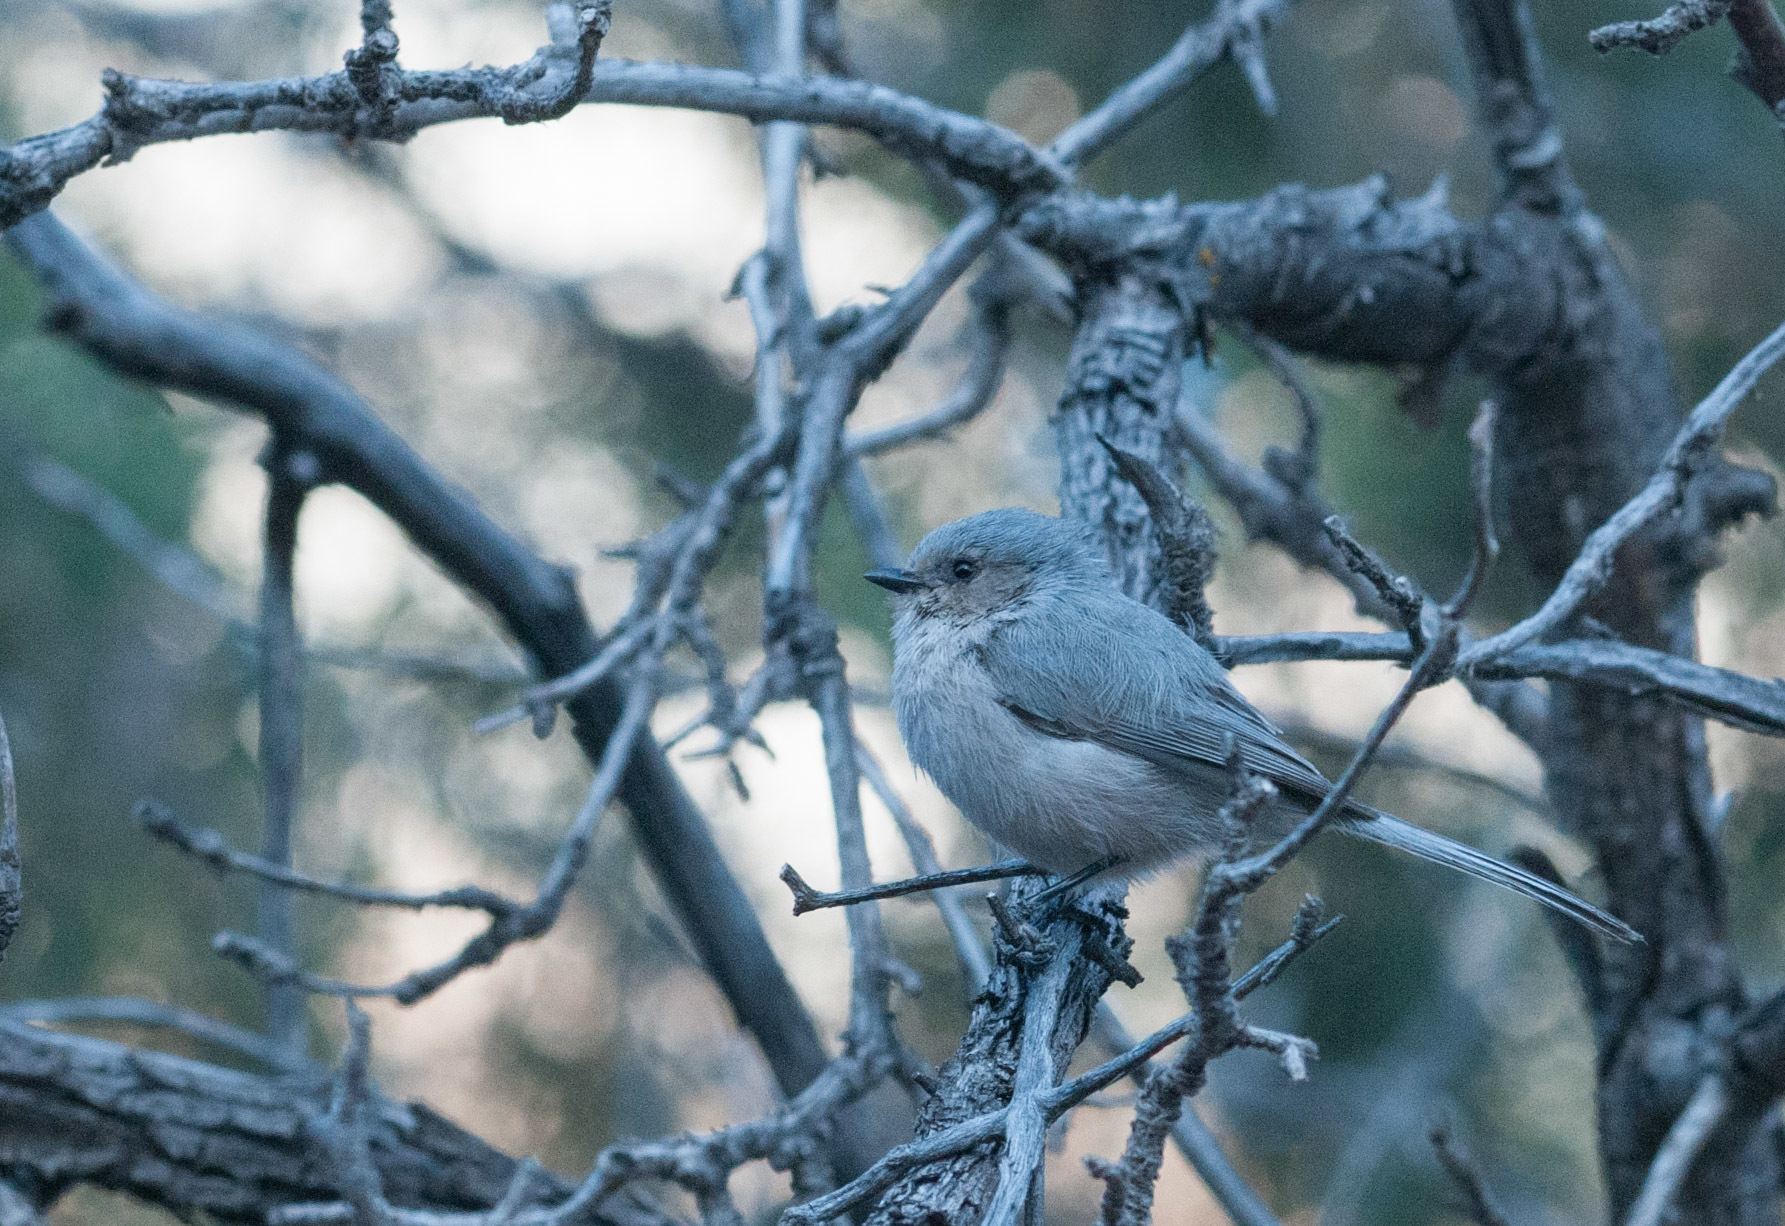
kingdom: Animalia
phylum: Chordata
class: Aves
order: Passeriformes
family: Aegithalidae
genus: Psaltriparus
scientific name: Psaltriparus minimus
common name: American bushtit
